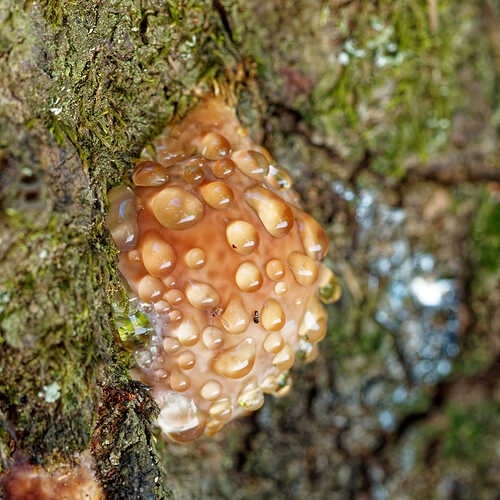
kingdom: Fungi
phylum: Basidiomycota
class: Agaricomycetes
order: Polyporales
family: Fomitopsidaceae
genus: Fomitopsis
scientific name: Fomitopsis pinicola
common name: Red-belted bracket
